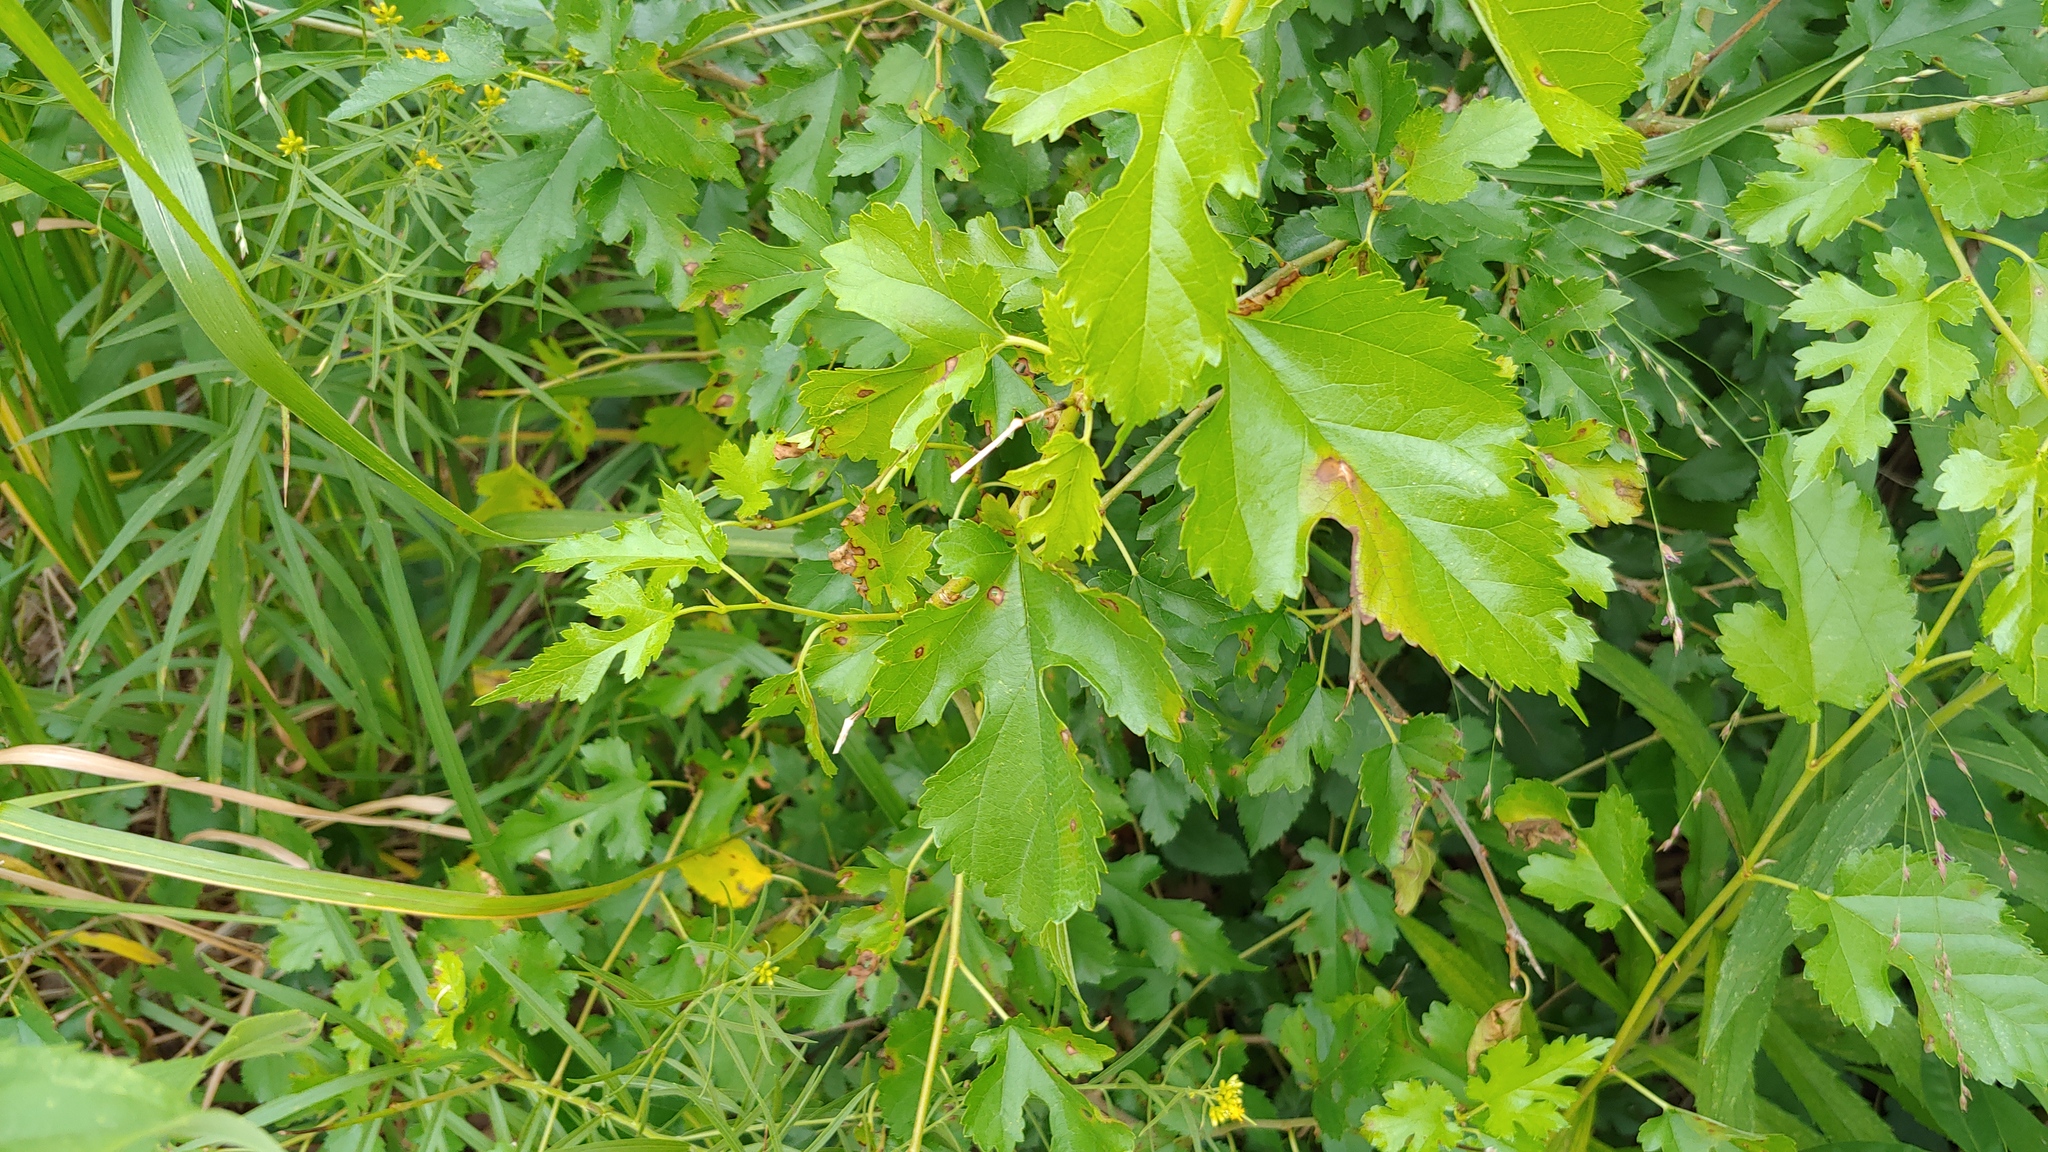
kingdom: Plantae
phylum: Tracheophyta
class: Magnoliopsida
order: Rosales
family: Moraceae
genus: Morus
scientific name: Morus alba
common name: White mulberry
